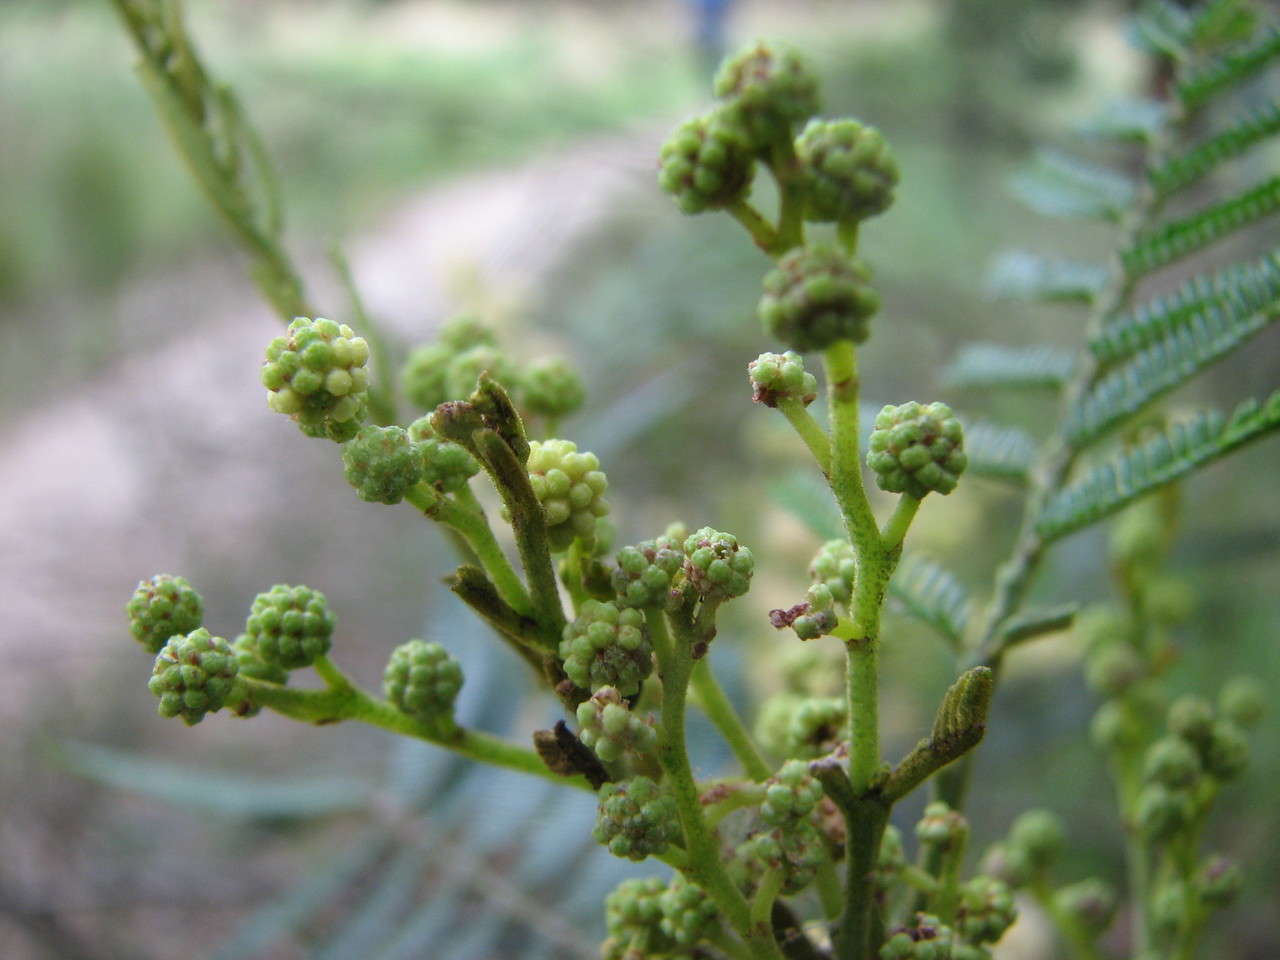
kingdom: Plantae
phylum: Tracheophyta
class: Magnoliopsida
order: Fabales
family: Fabaceae
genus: Acacia
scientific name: Acacia mearnsii
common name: Black wattle
